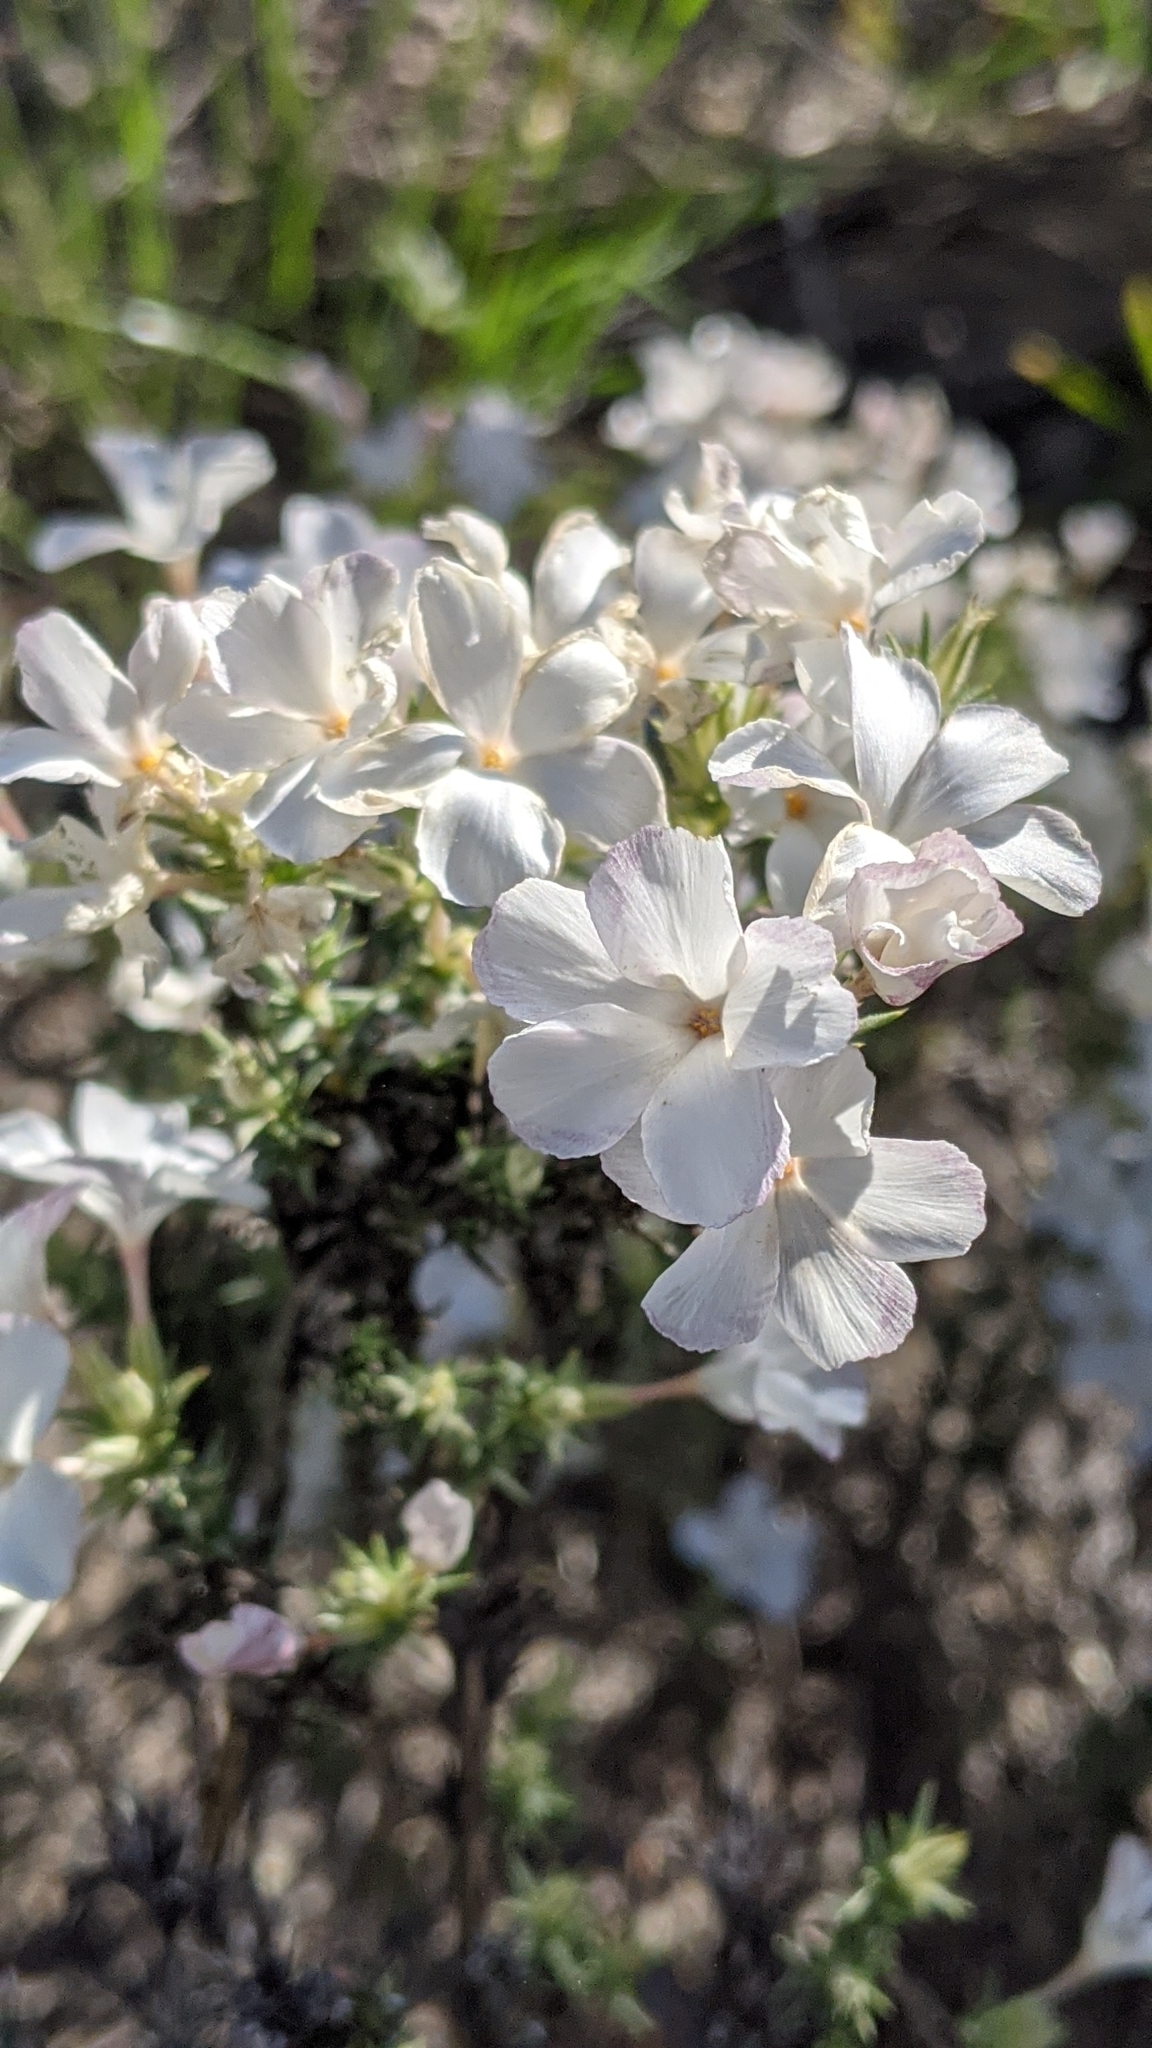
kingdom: Plantae
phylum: Tracheophyta
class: Magnoliopsida
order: Ericales
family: Polemoniaceae
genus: Linanthus
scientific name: Linanthus pungens
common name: Granite prickly phlox
